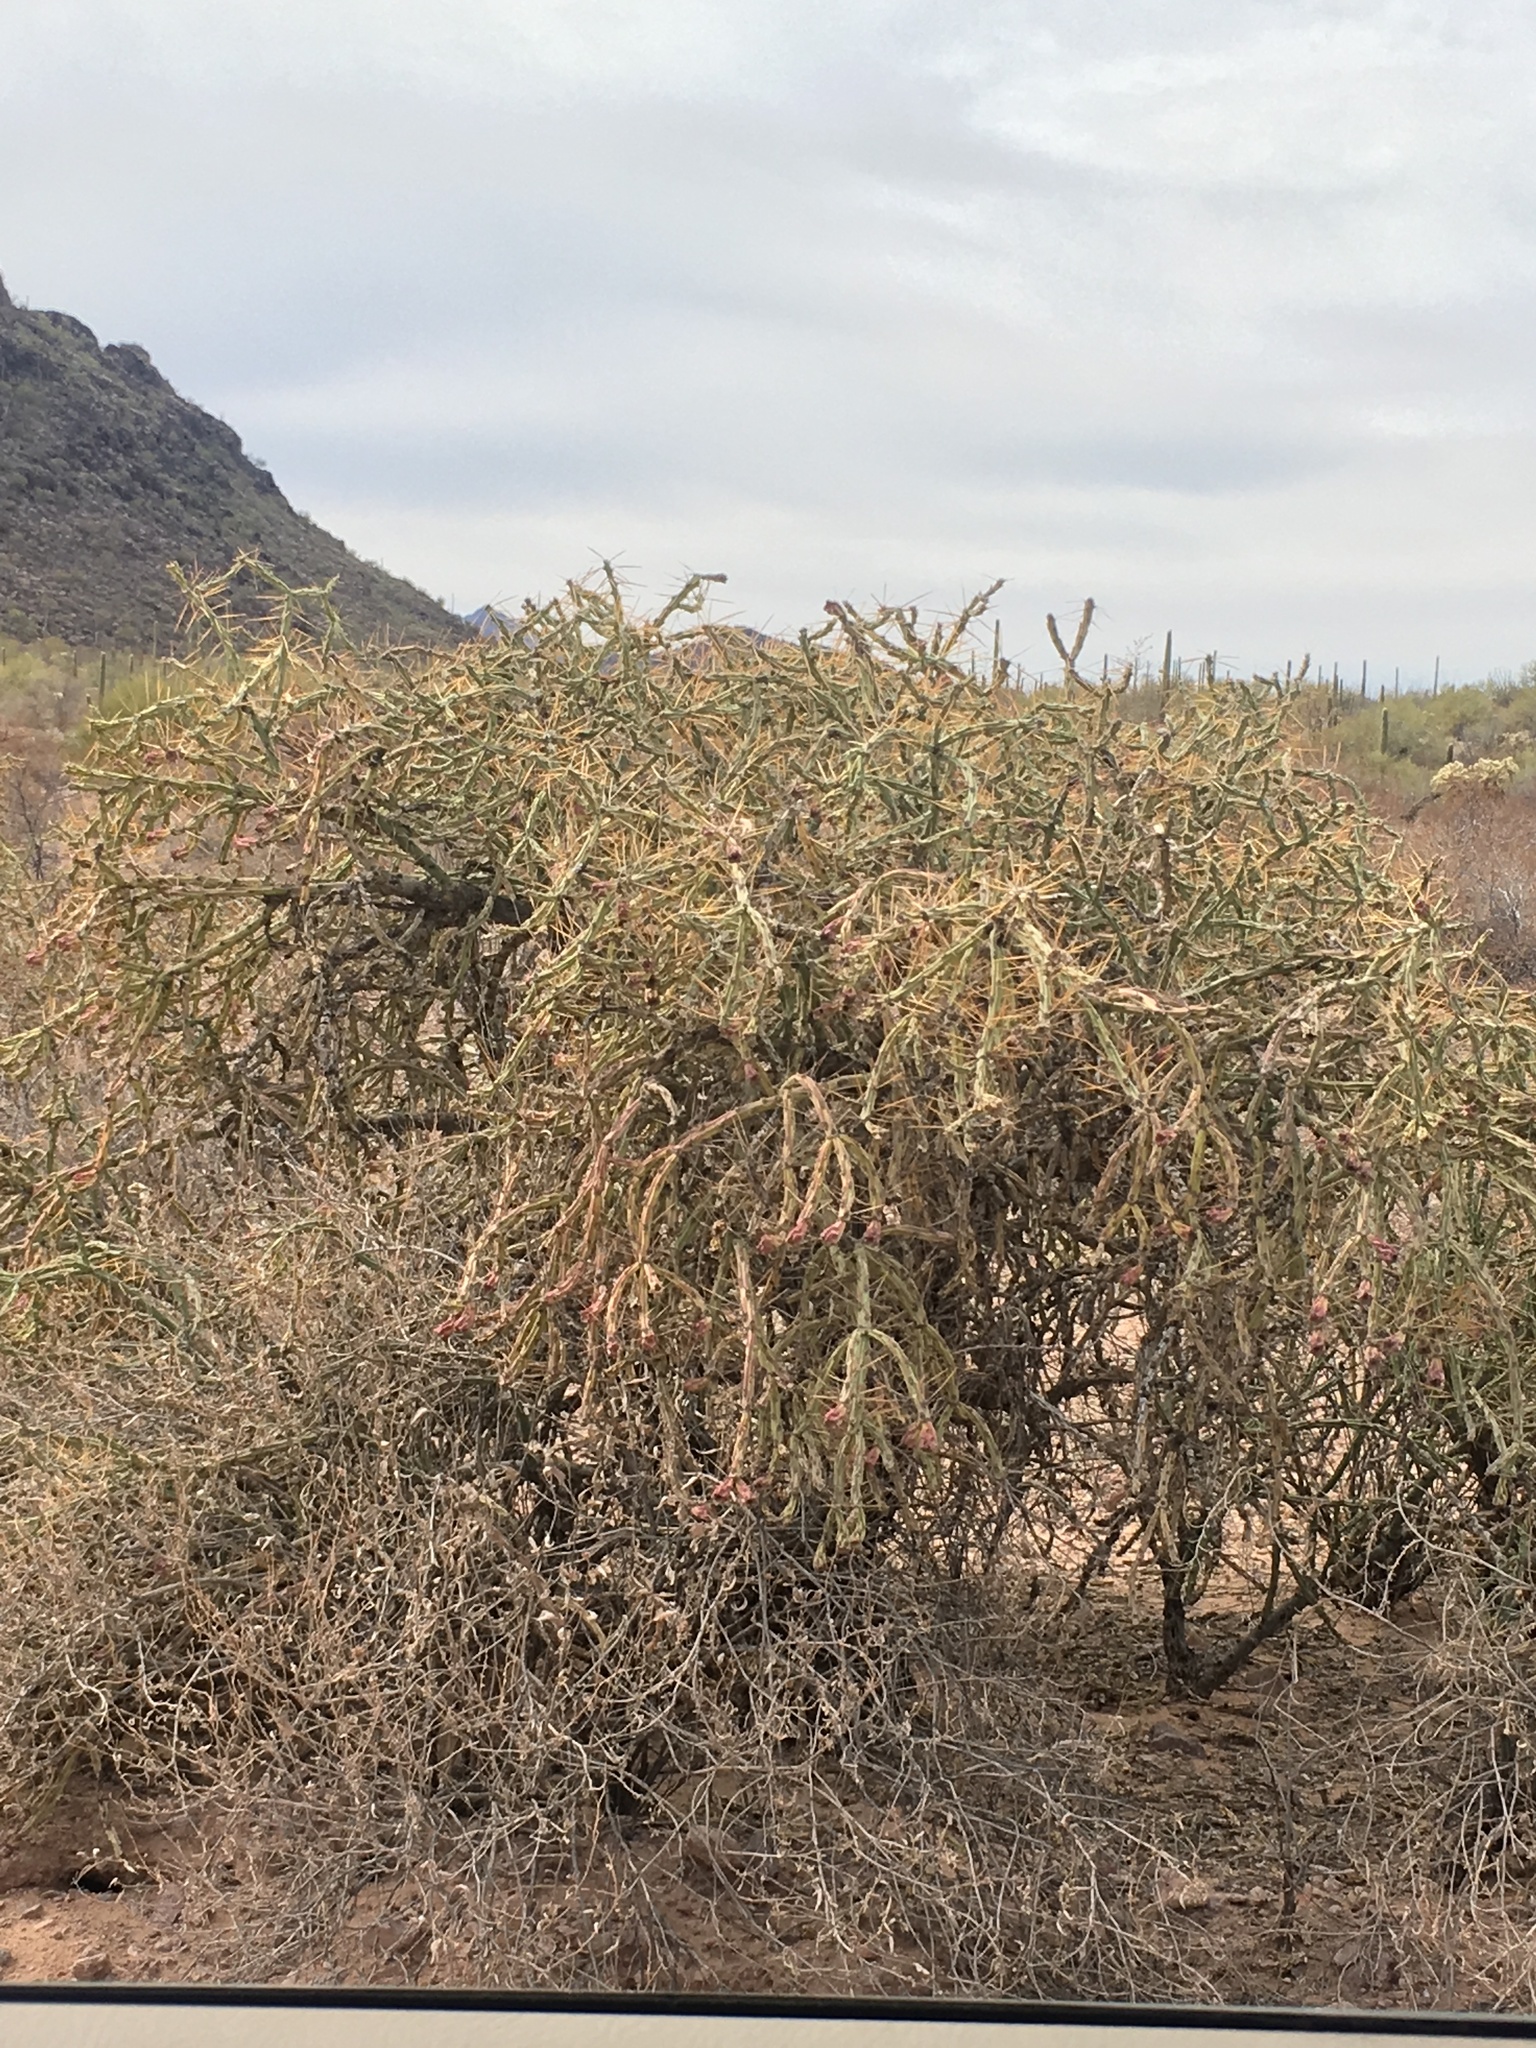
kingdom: Plantae
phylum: Tracheophyta
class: Magnoliopsida
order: Caryophyllales
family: Cactaceae
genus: Cylindropuntia
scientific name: Cylindropuntia arbuscula
